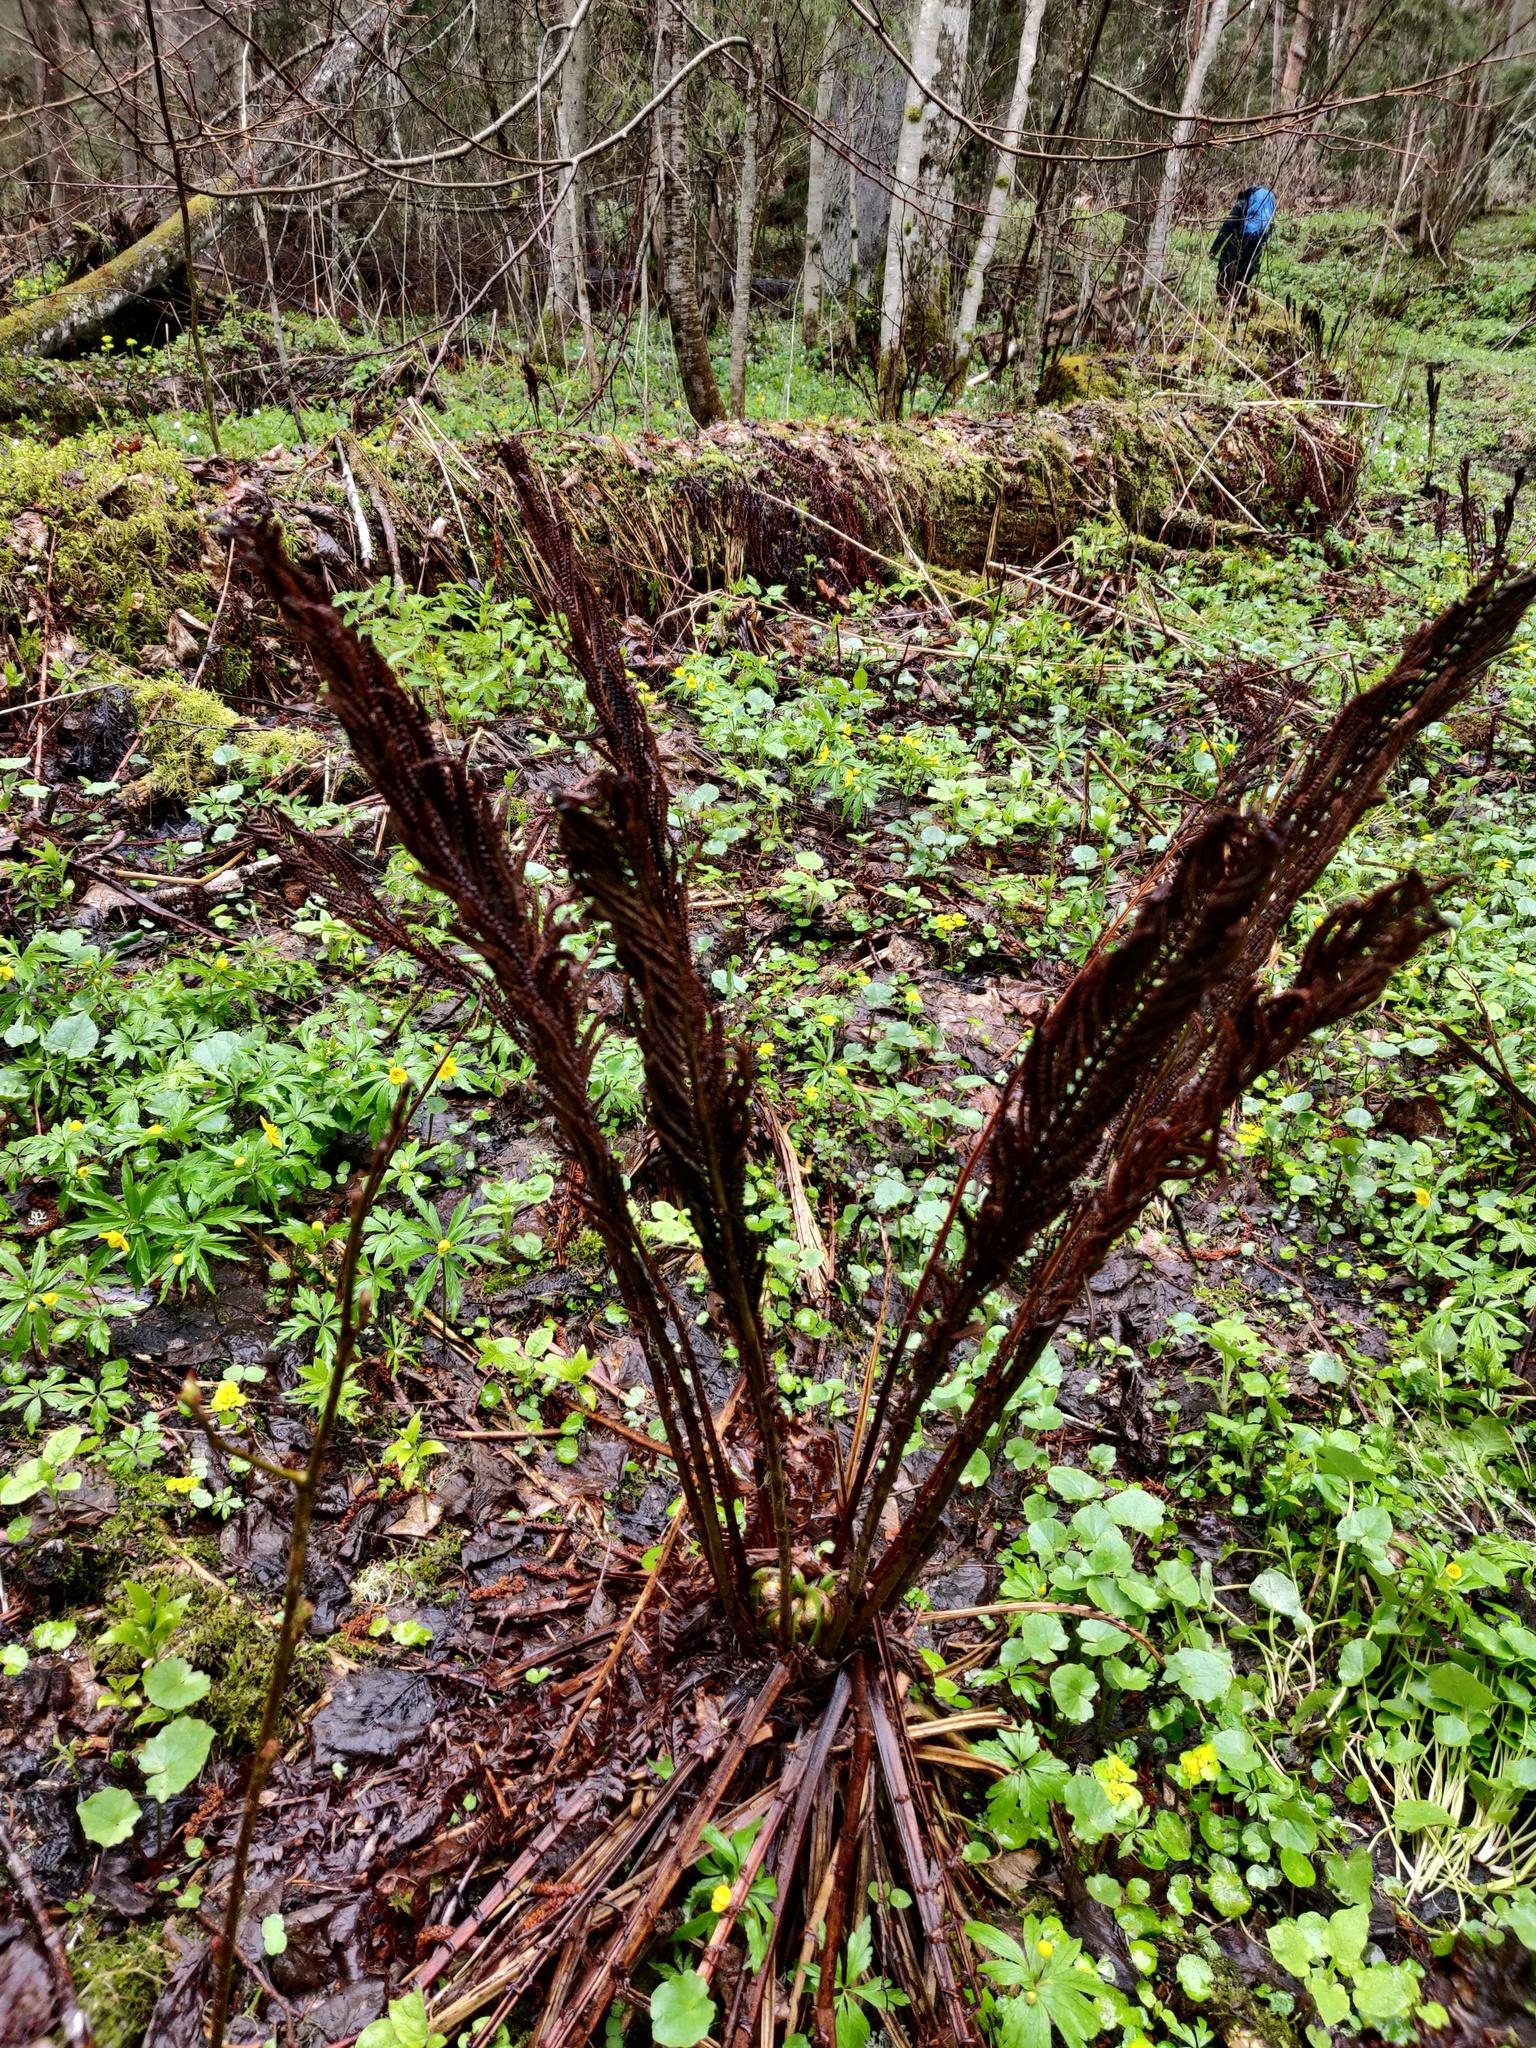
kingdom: Plantae
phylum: Tracheophyta
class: Polypodiopsida
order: Polypodiales
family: Onocleaceae
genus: Matteuccia
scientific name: Matteuccia struthiopteris
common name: Ostrich fern
